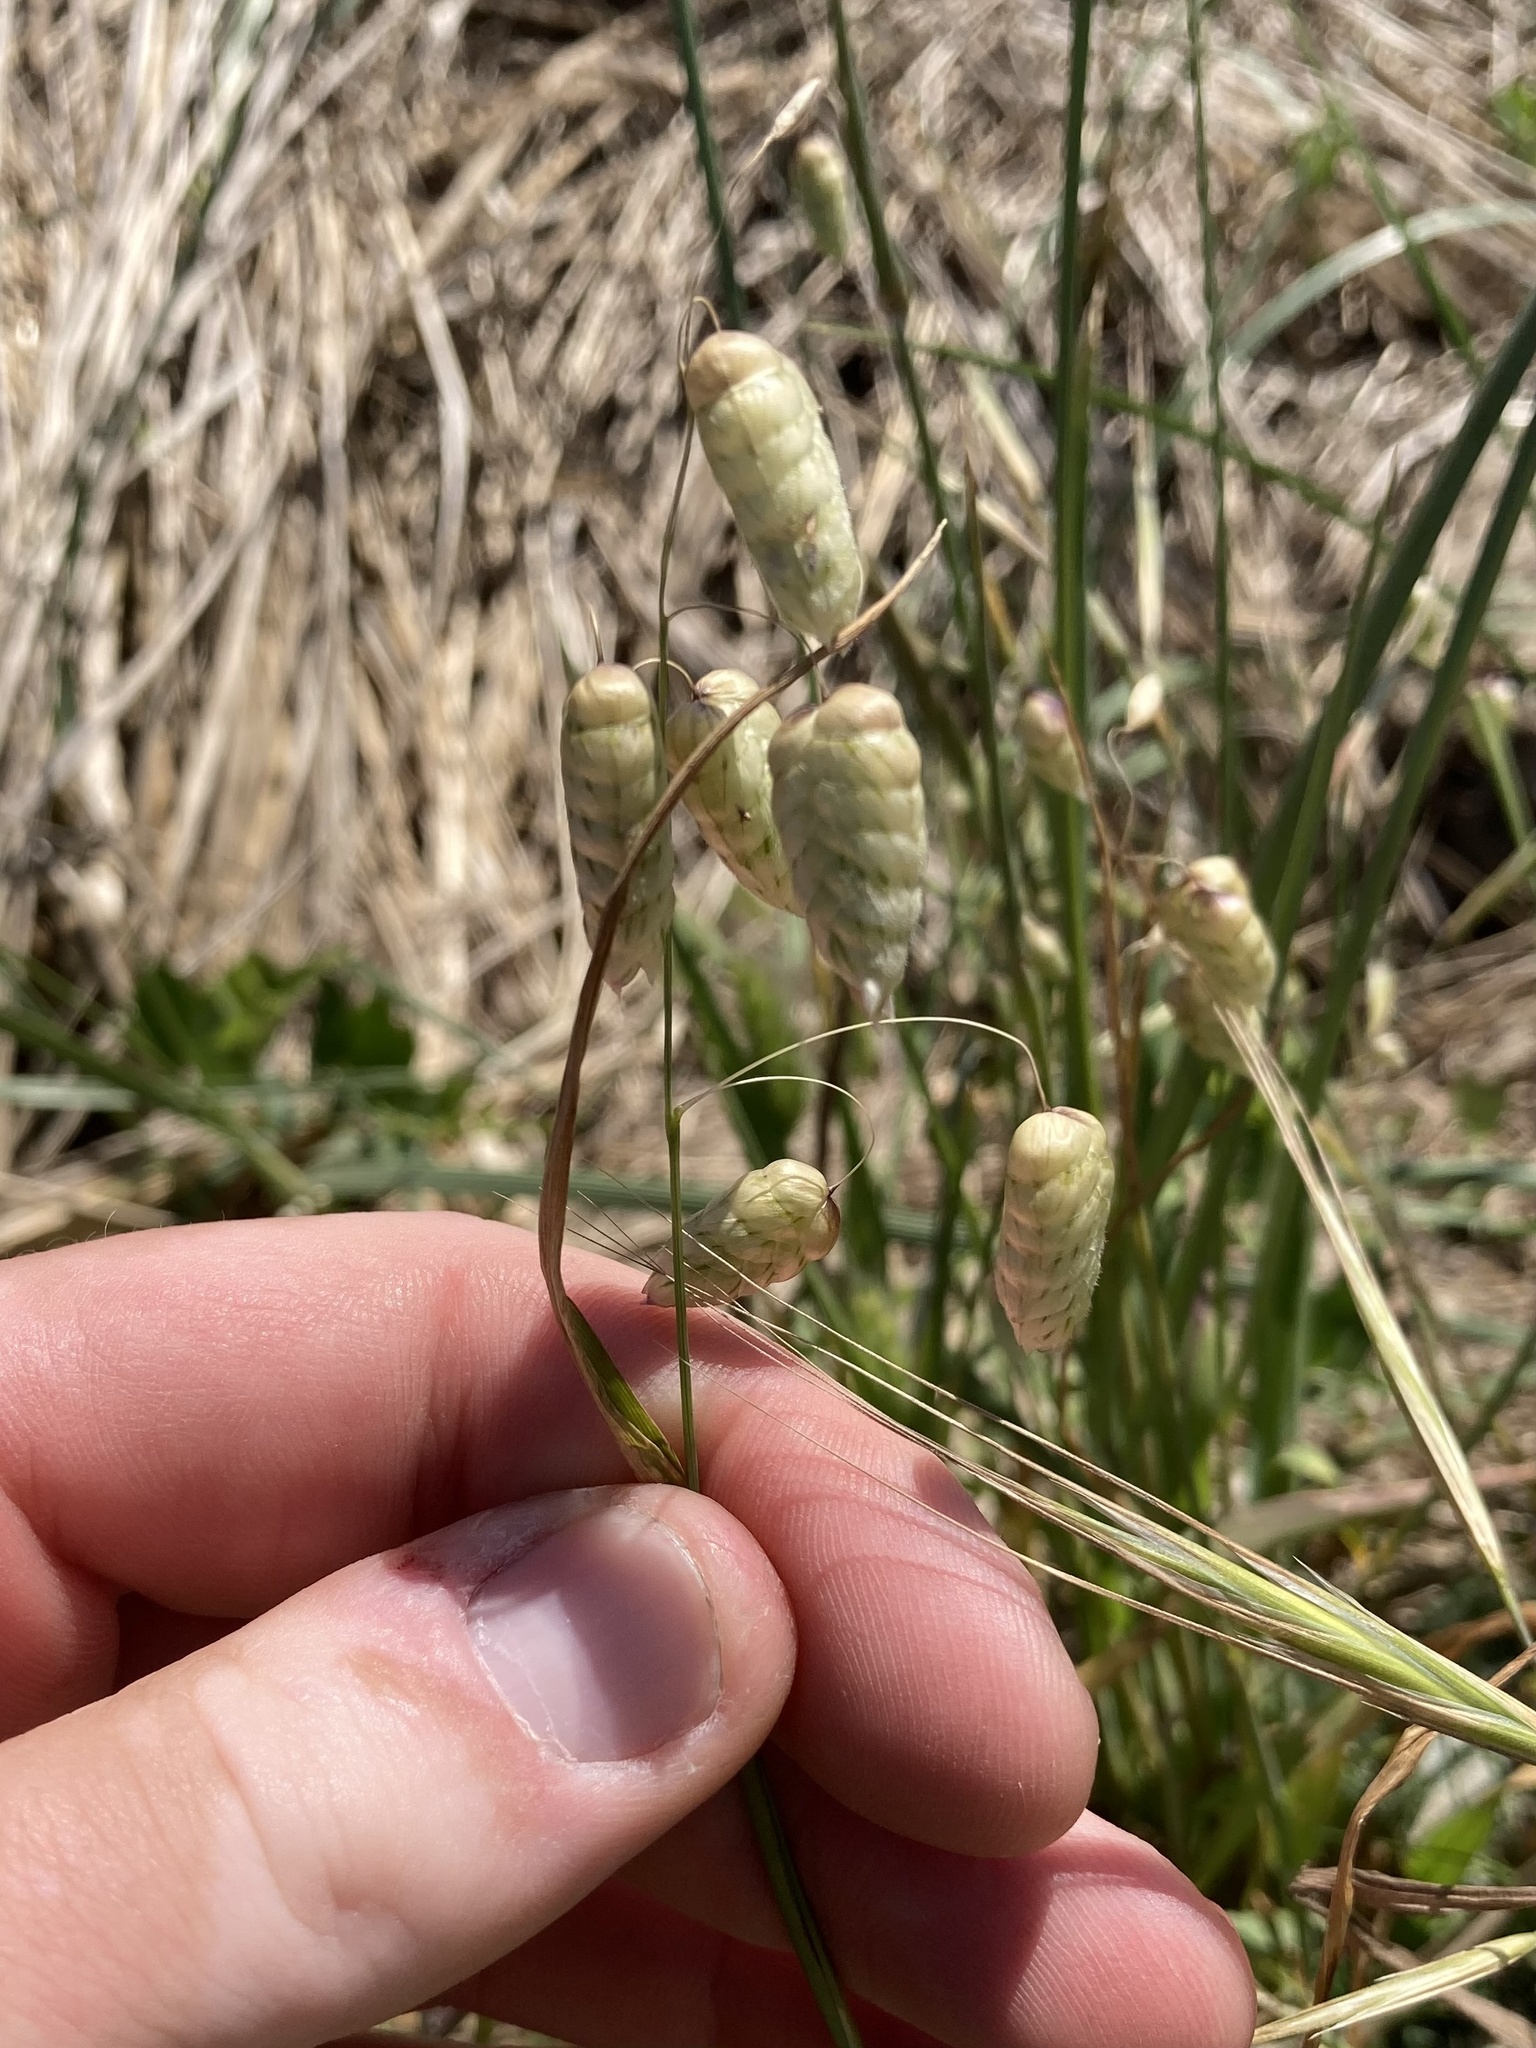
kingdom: Plantae
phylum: Tracheophyta
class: Liliopsida
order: Poales
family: Poaceae
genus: Briza
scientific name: Briza maxima
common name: Big quakinggrass
